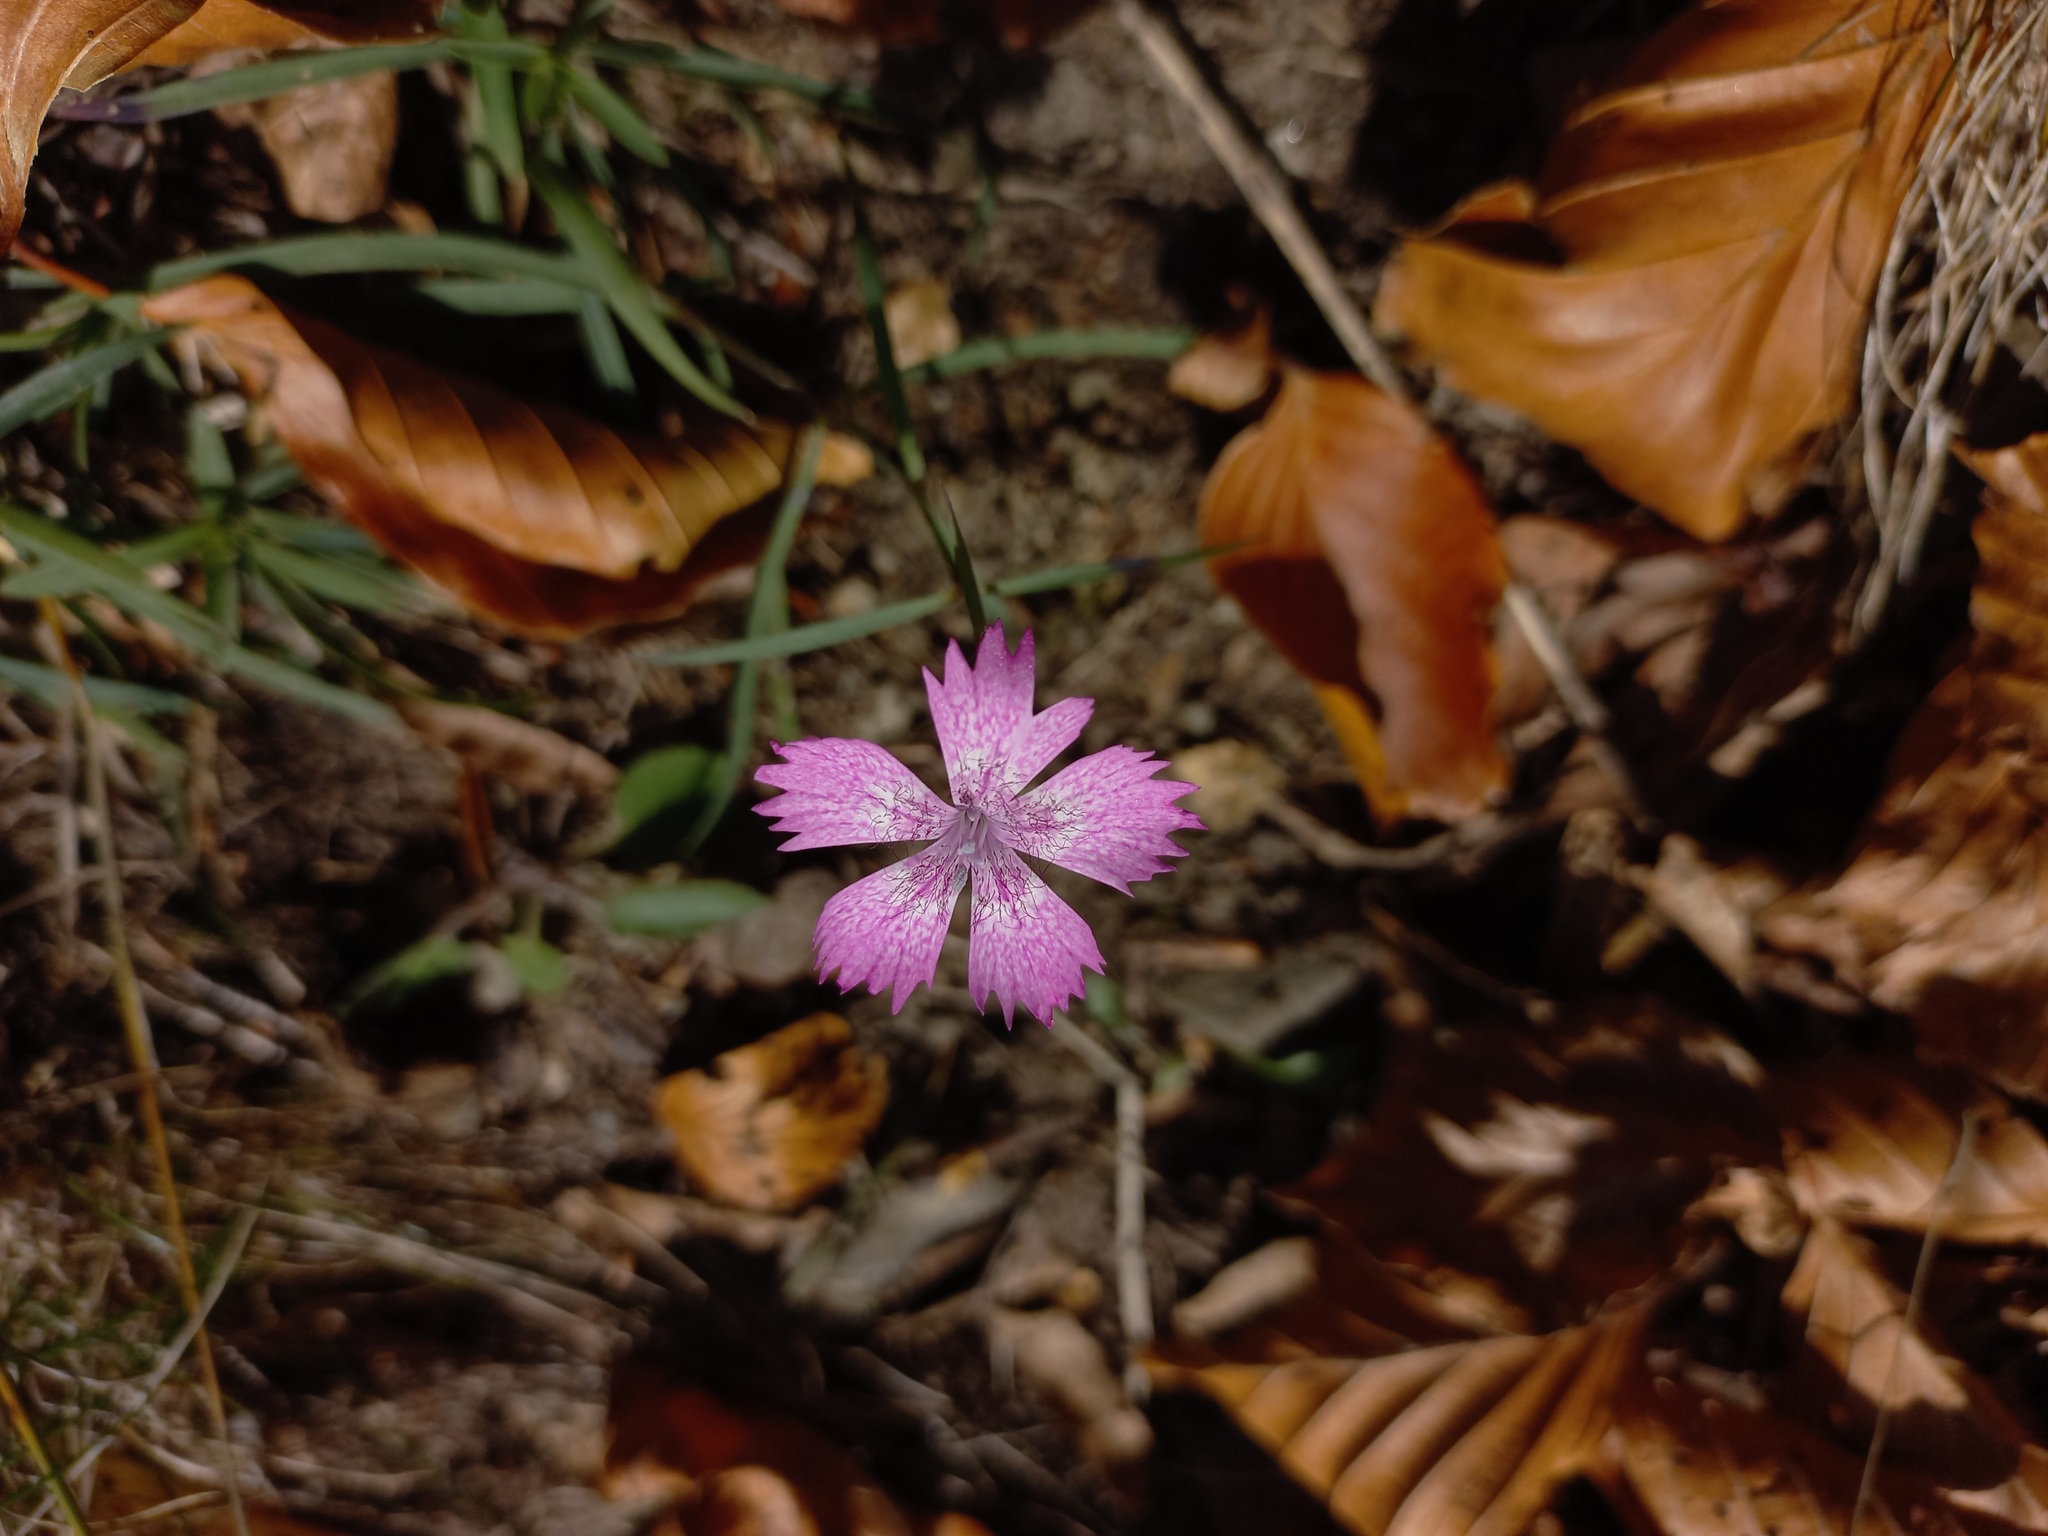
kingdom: Plantae
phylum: Tracheophyta
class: Magnoliopsida
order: Caryophyllales
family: Caryophyllaceae
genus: Dianthus
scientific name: Dianthus seguieri
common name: Ragged pink
